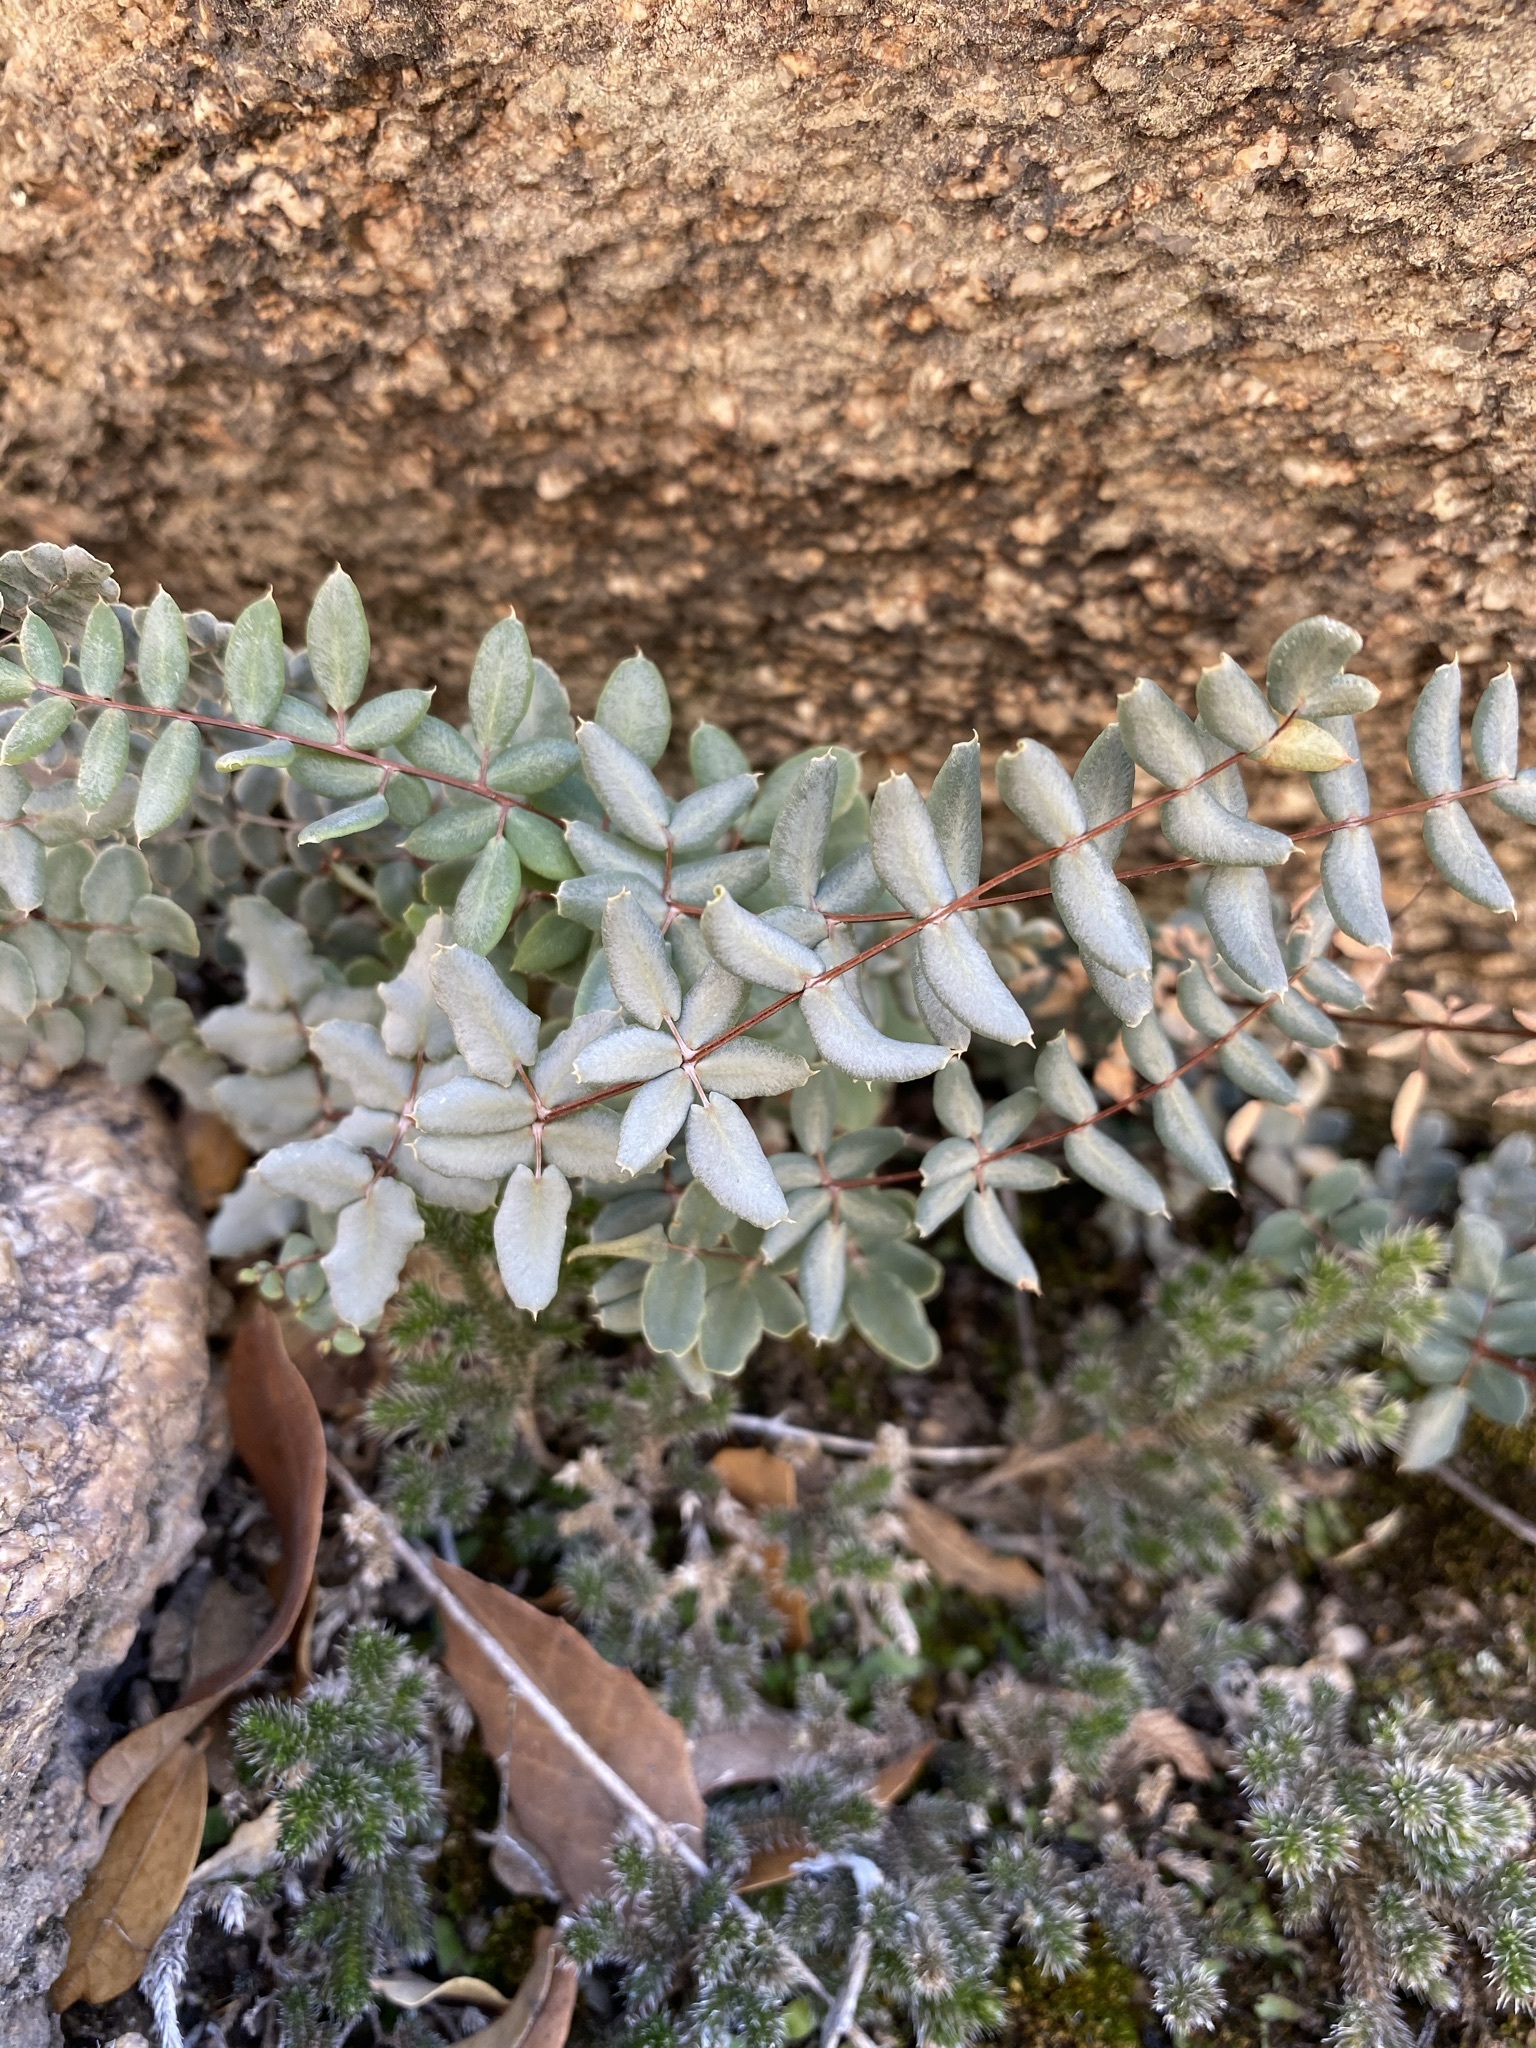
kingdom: Plantae
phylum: Tracheophyta
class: Polypodiopsida
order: Polypodiales
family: Pteridaceae
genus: Pellaea
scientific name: Pellaea wrightiana
